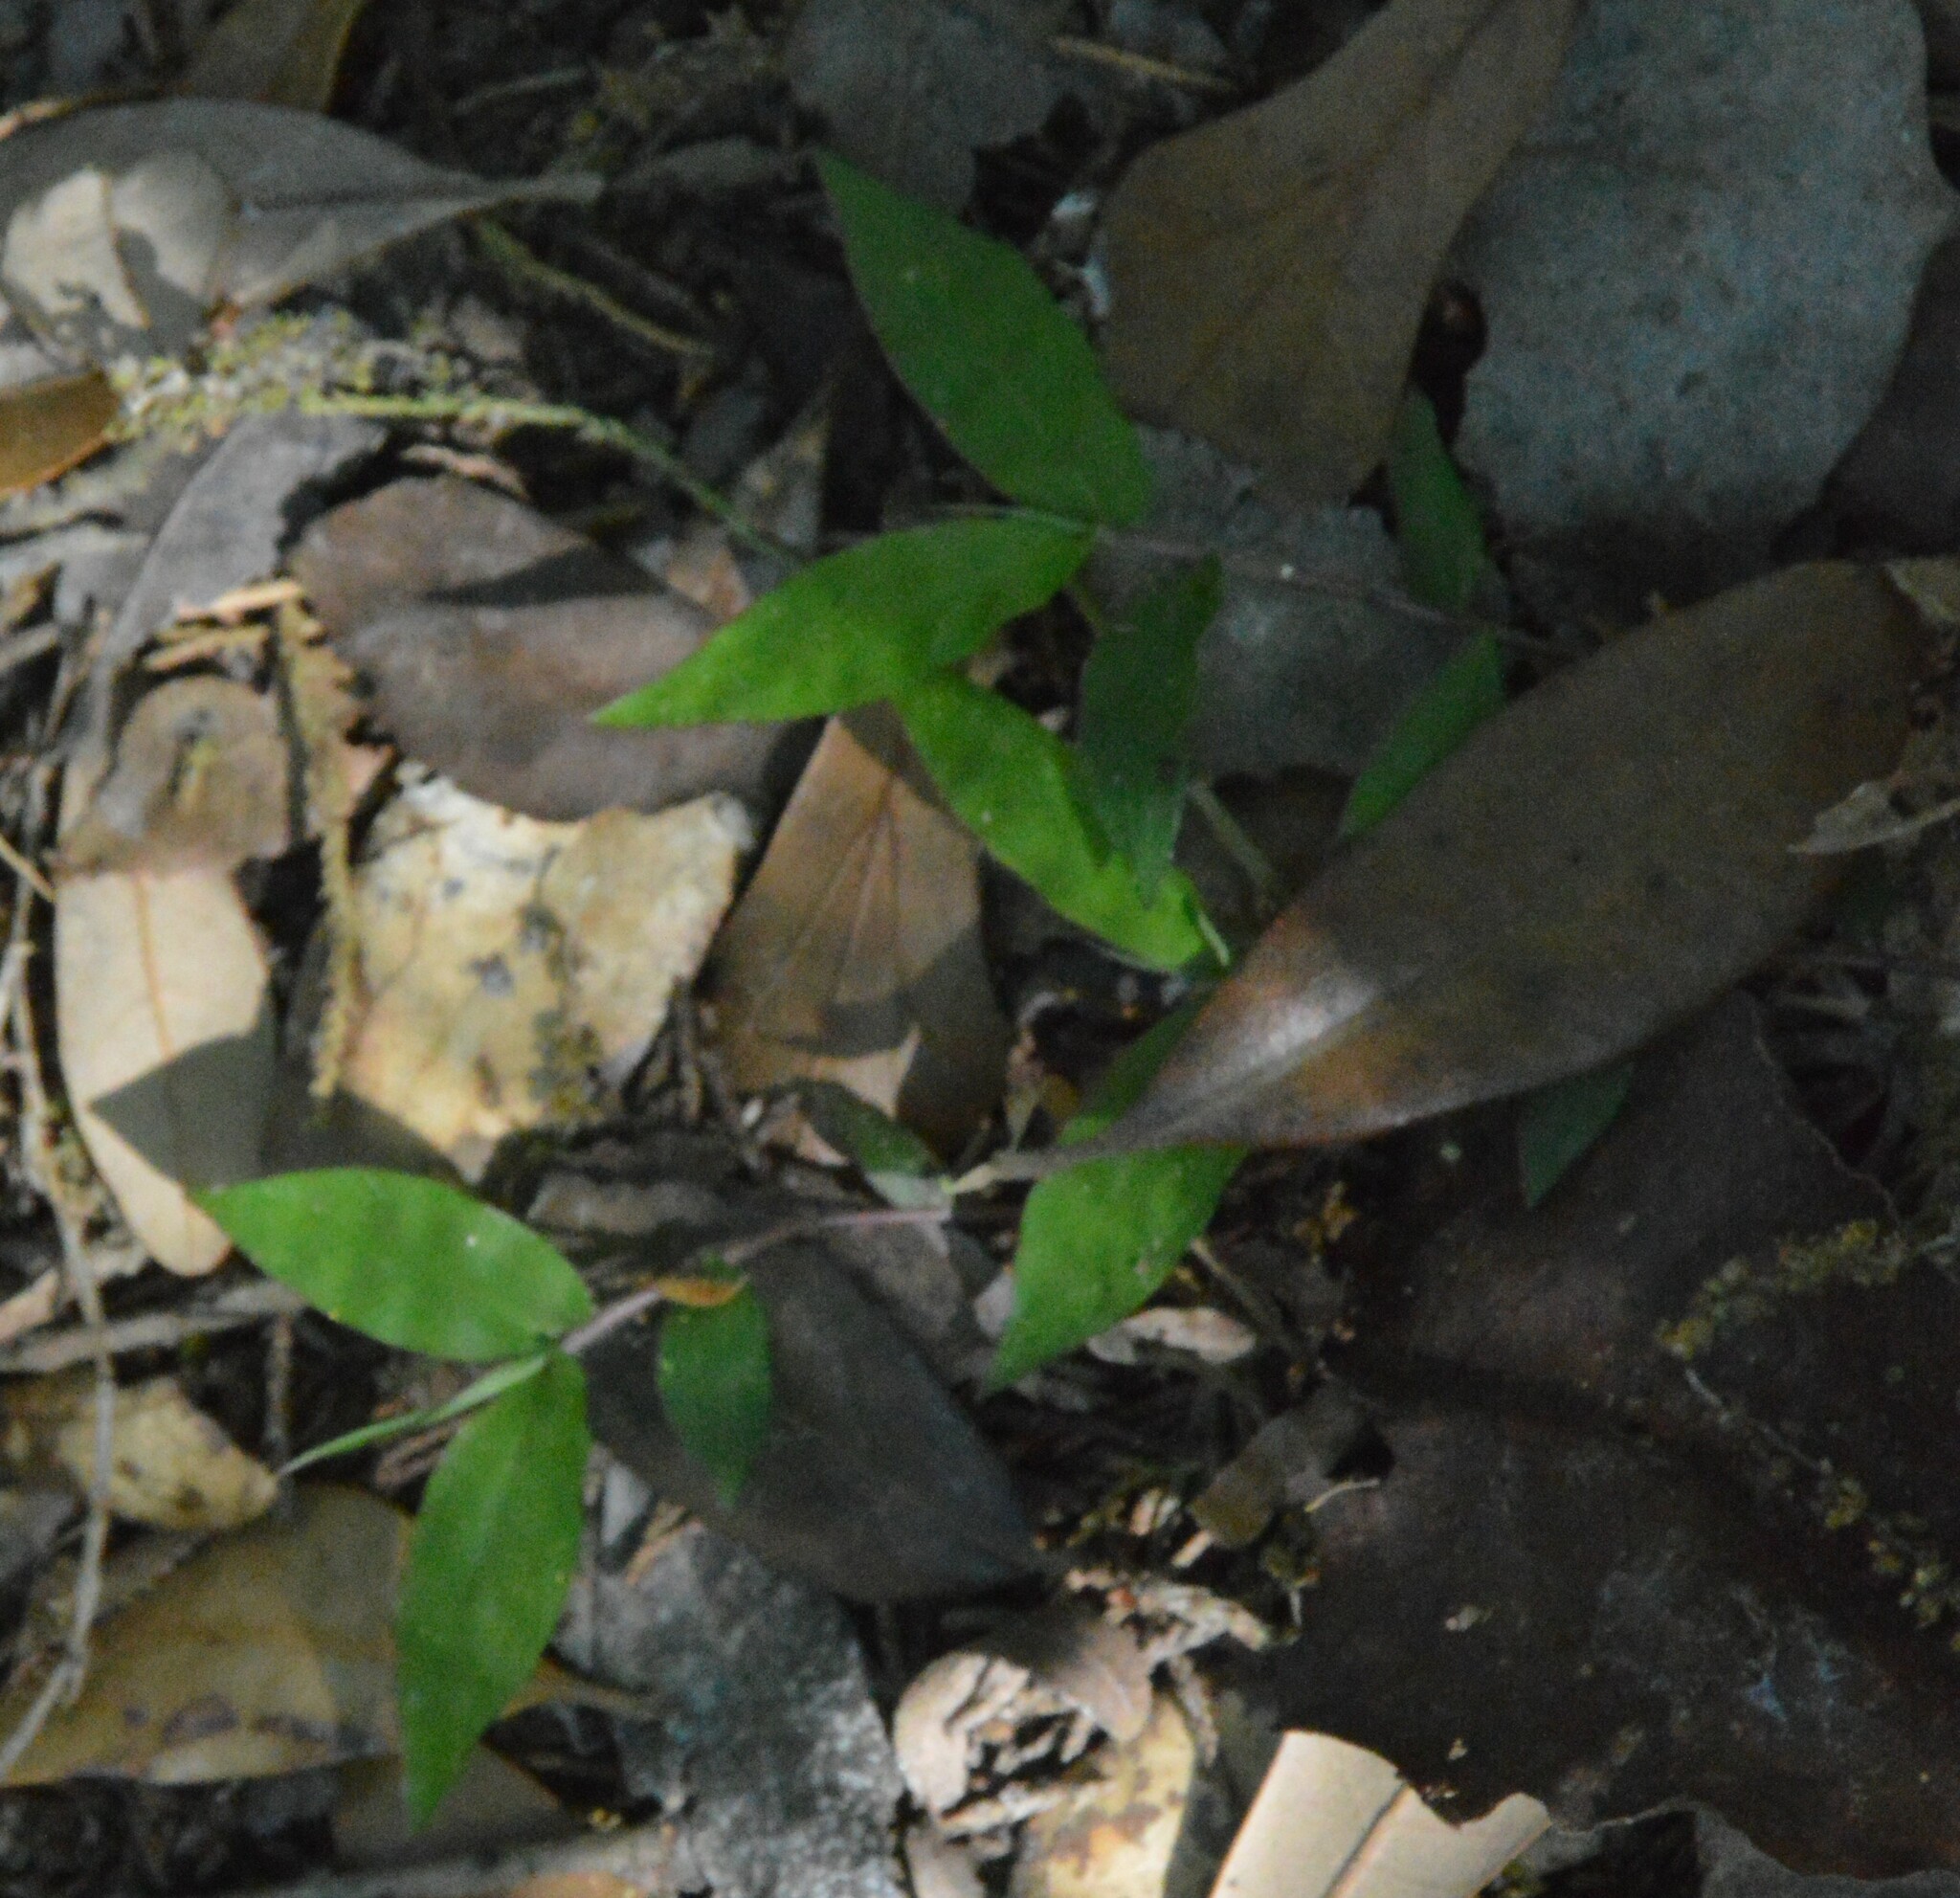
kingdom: Plantae
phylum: Tracheophyta
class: Liliopsida
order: Poales
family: Poaceae
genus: Oplismenus
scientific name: Oplismenus hirtellus
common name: Basketgrass
